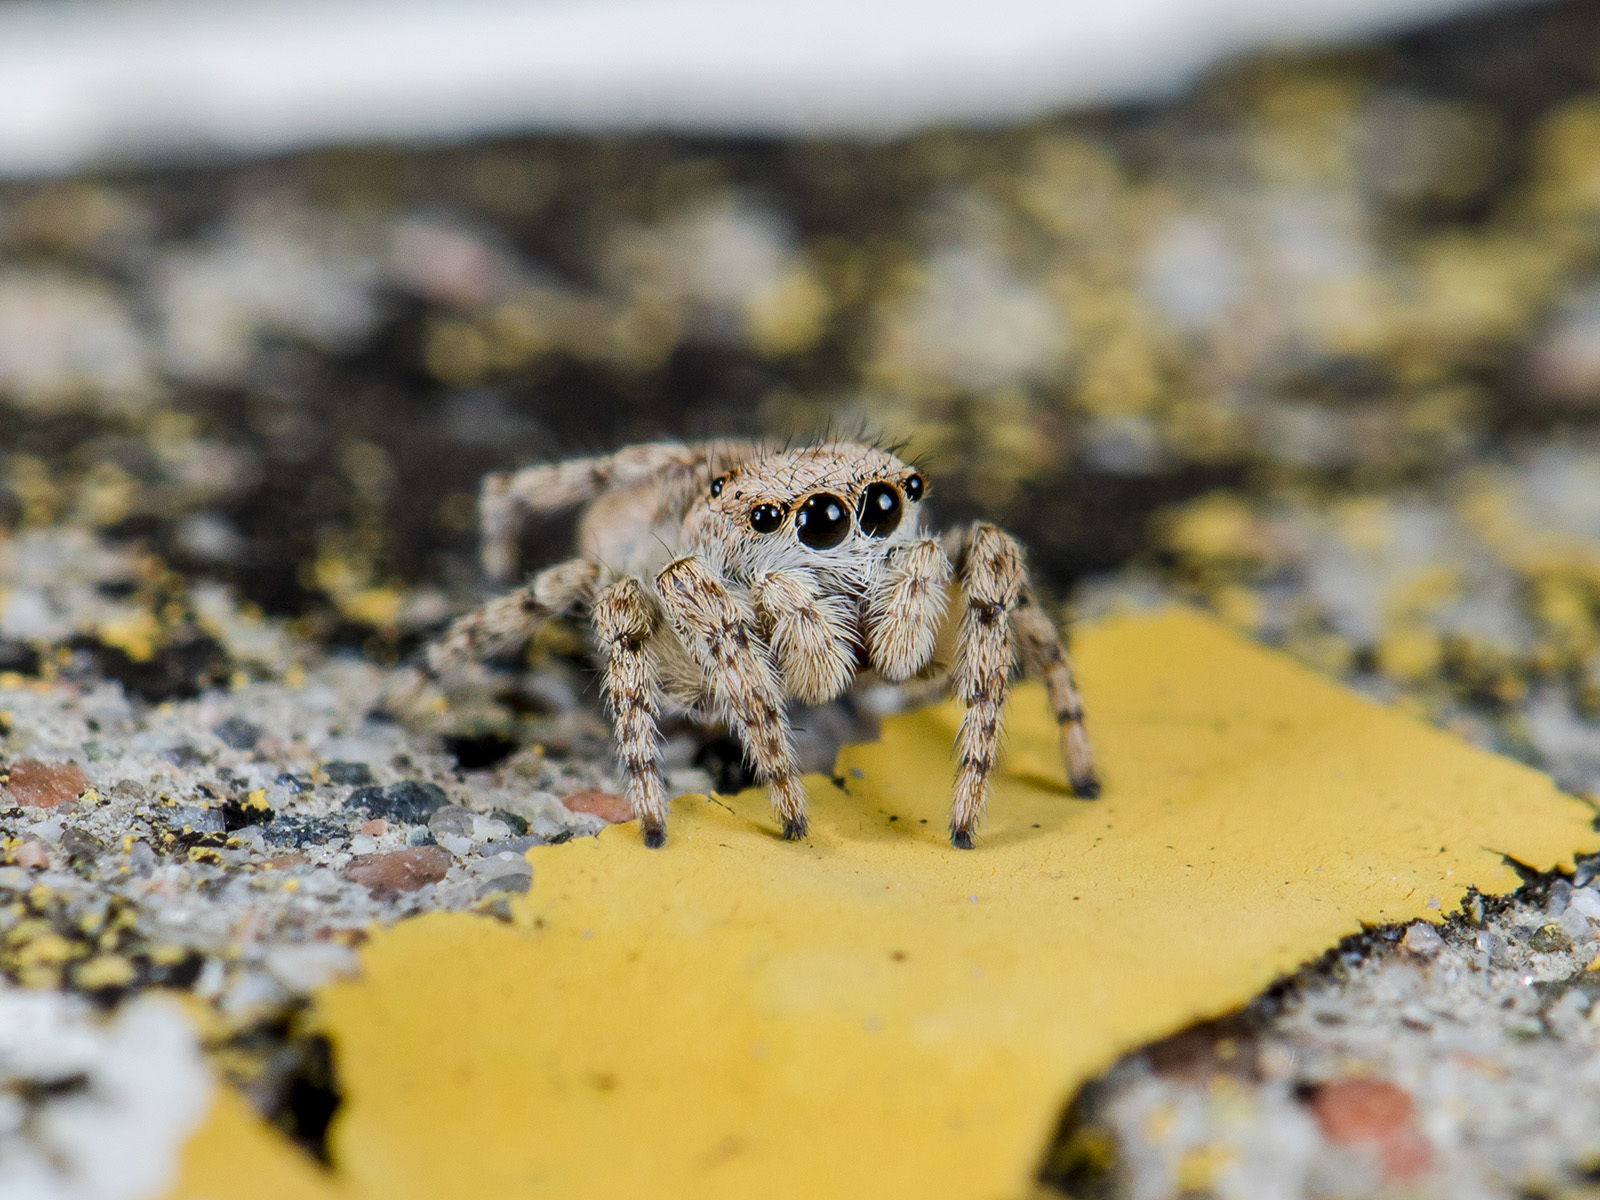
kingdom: Animalia
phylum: Arthropoda
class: Arachnida
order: Araneae
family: Salticidae
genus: Attulus
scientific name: Attulus avocator
